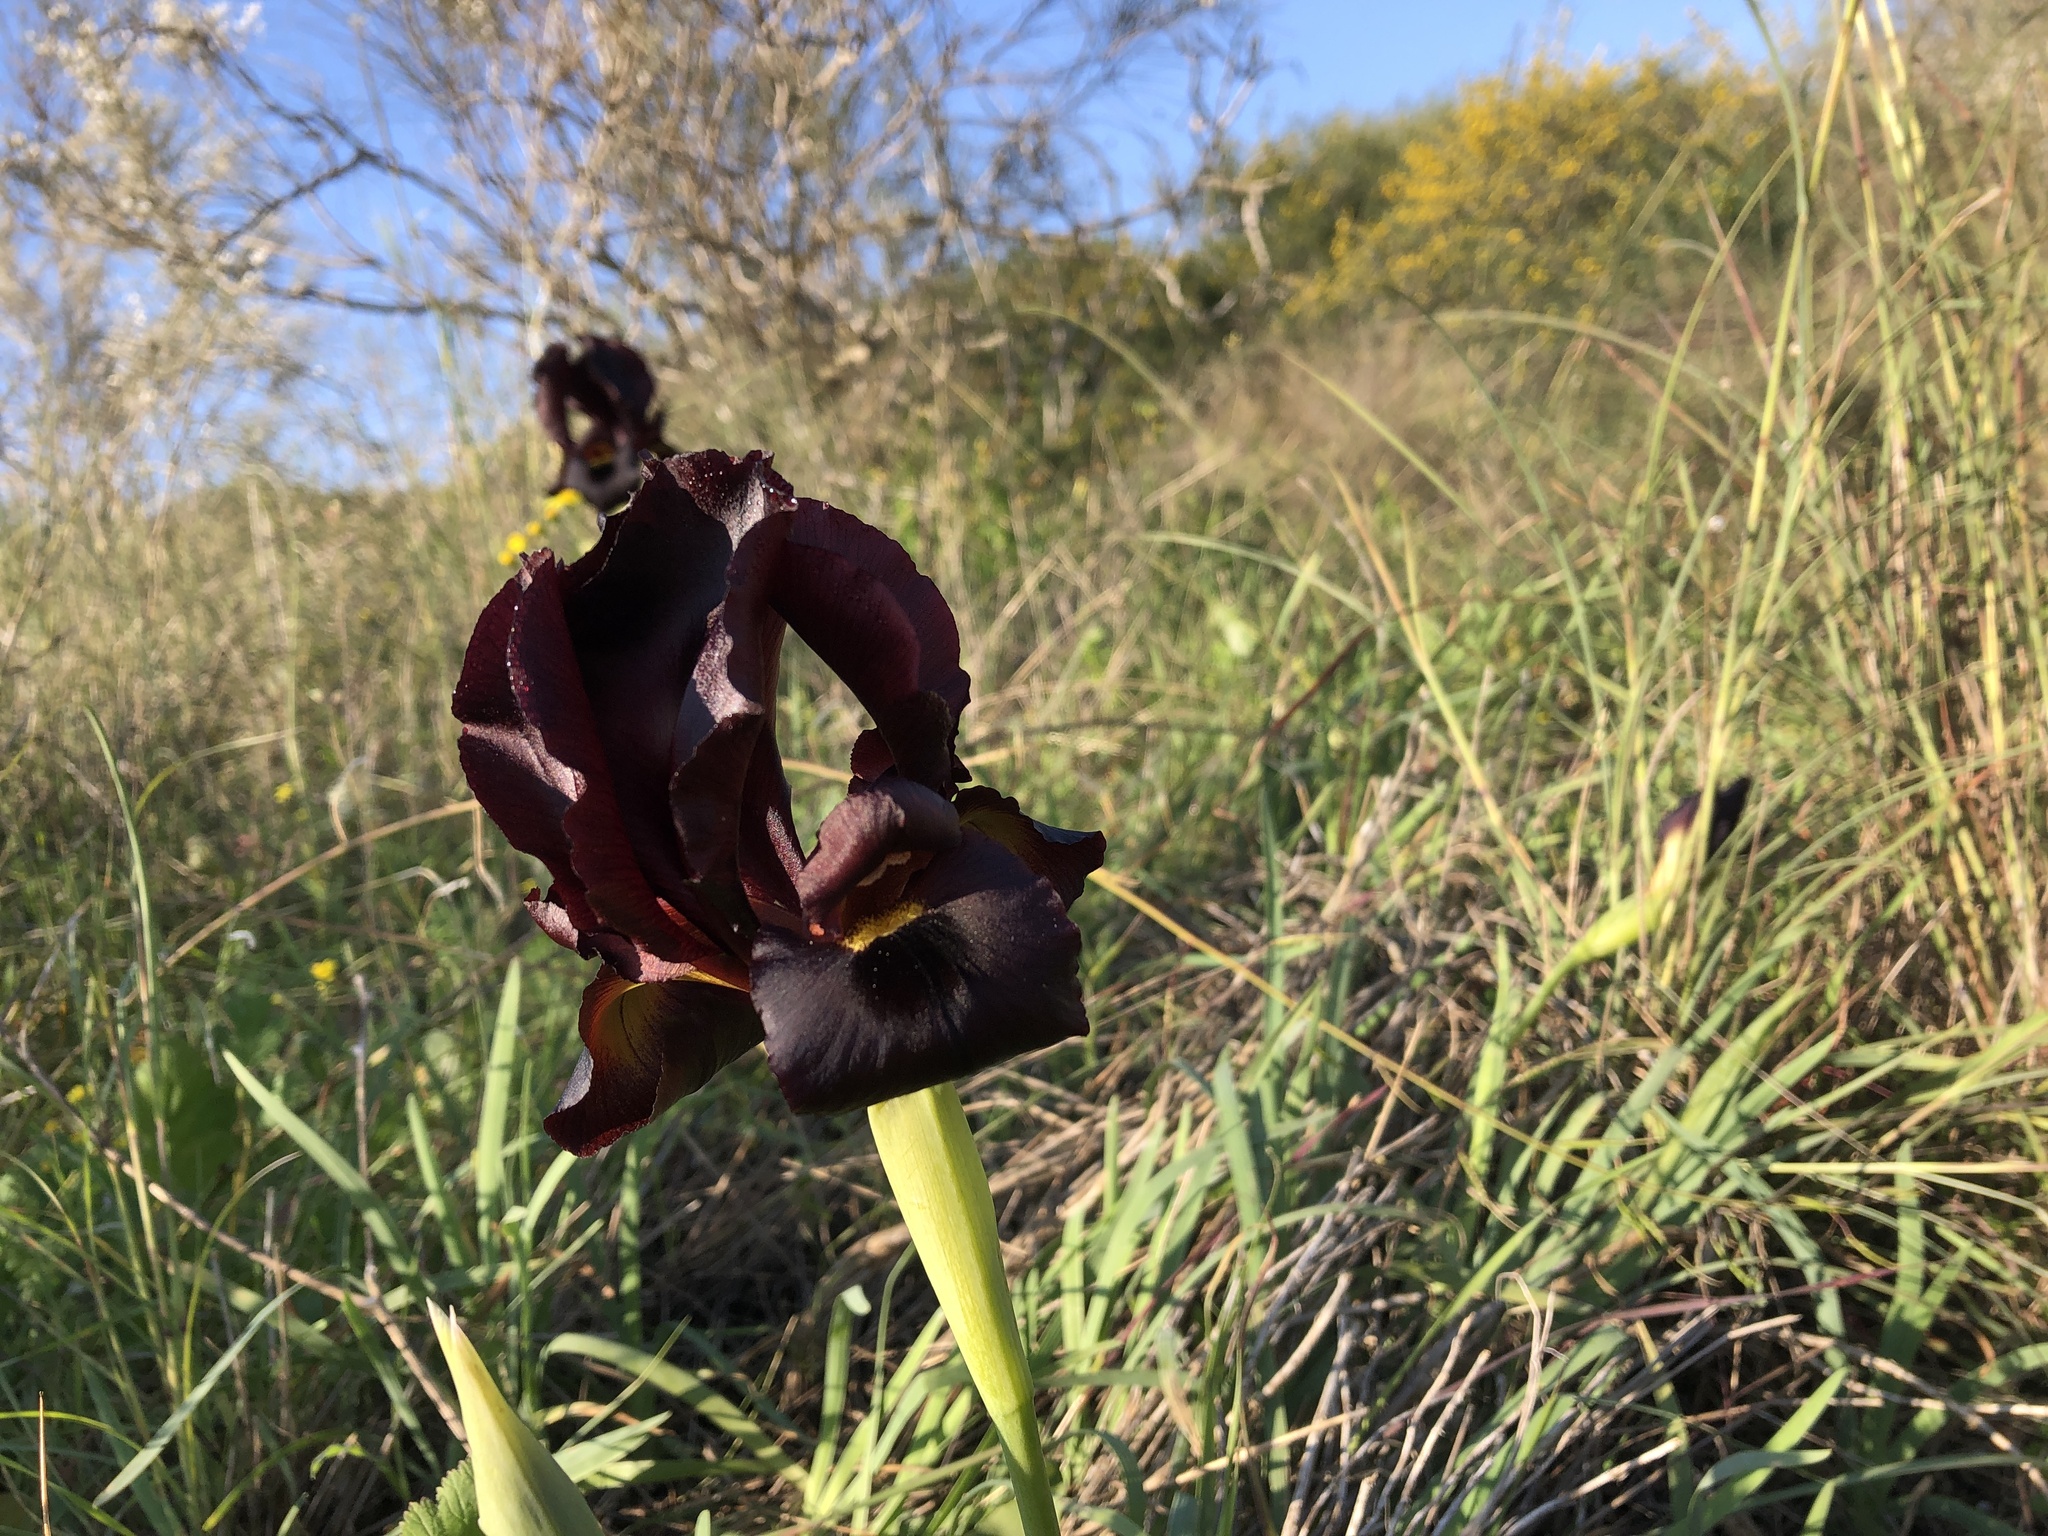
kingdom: Plantae
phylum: Tracheophyta
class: Liliopsida
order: Asparagales
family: Iridaceae
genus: Iris
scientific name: Iris atropurpurea
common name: Coastal iris
